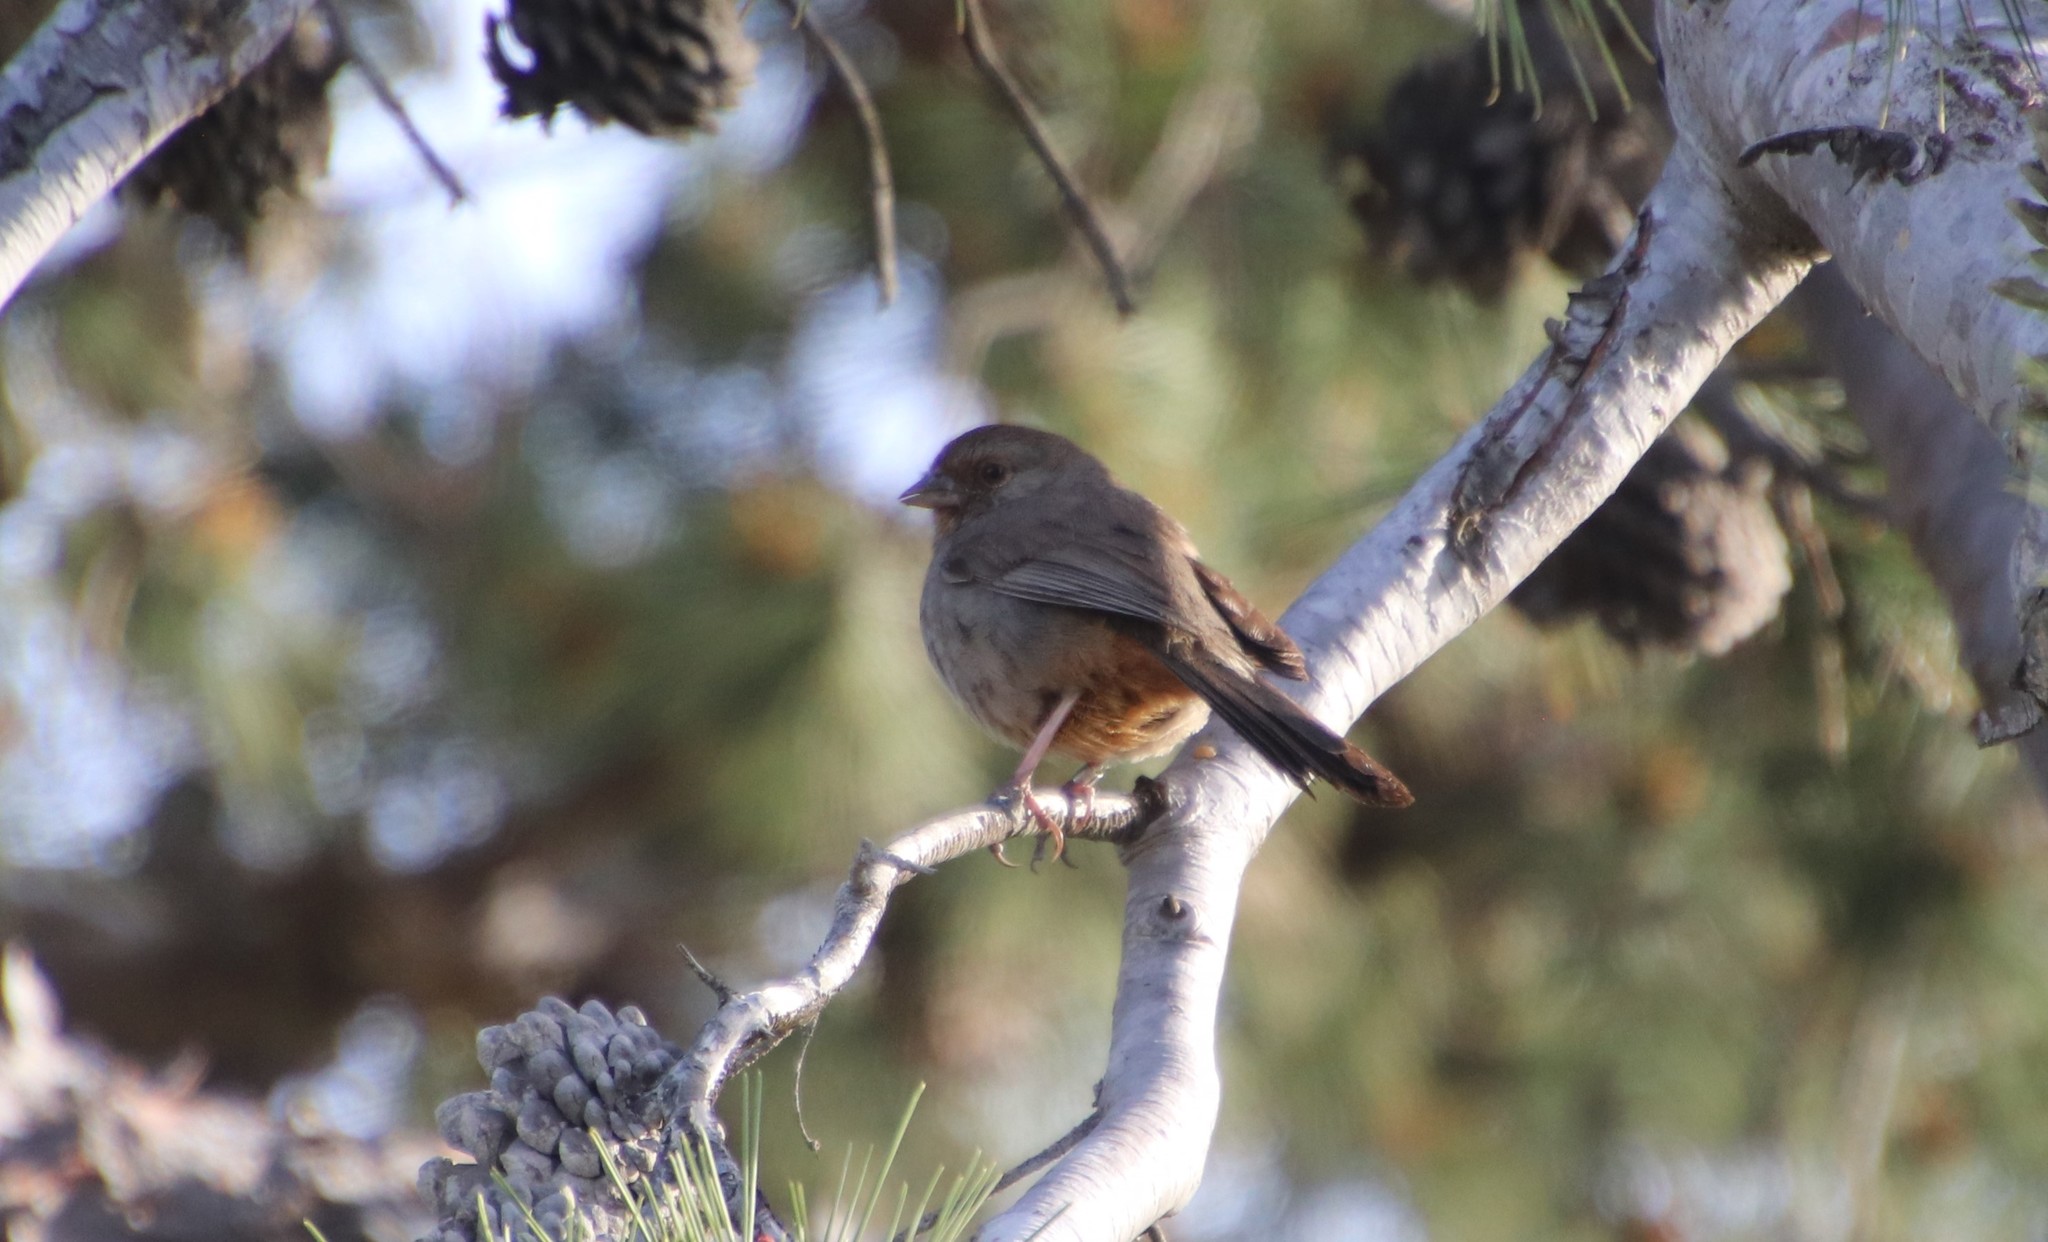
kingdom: Animalia
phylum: Chordata
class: Aves
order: Passeriformes
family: Passerellidae
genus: Melozone
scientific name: Melozone crissalis
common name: California towhee
